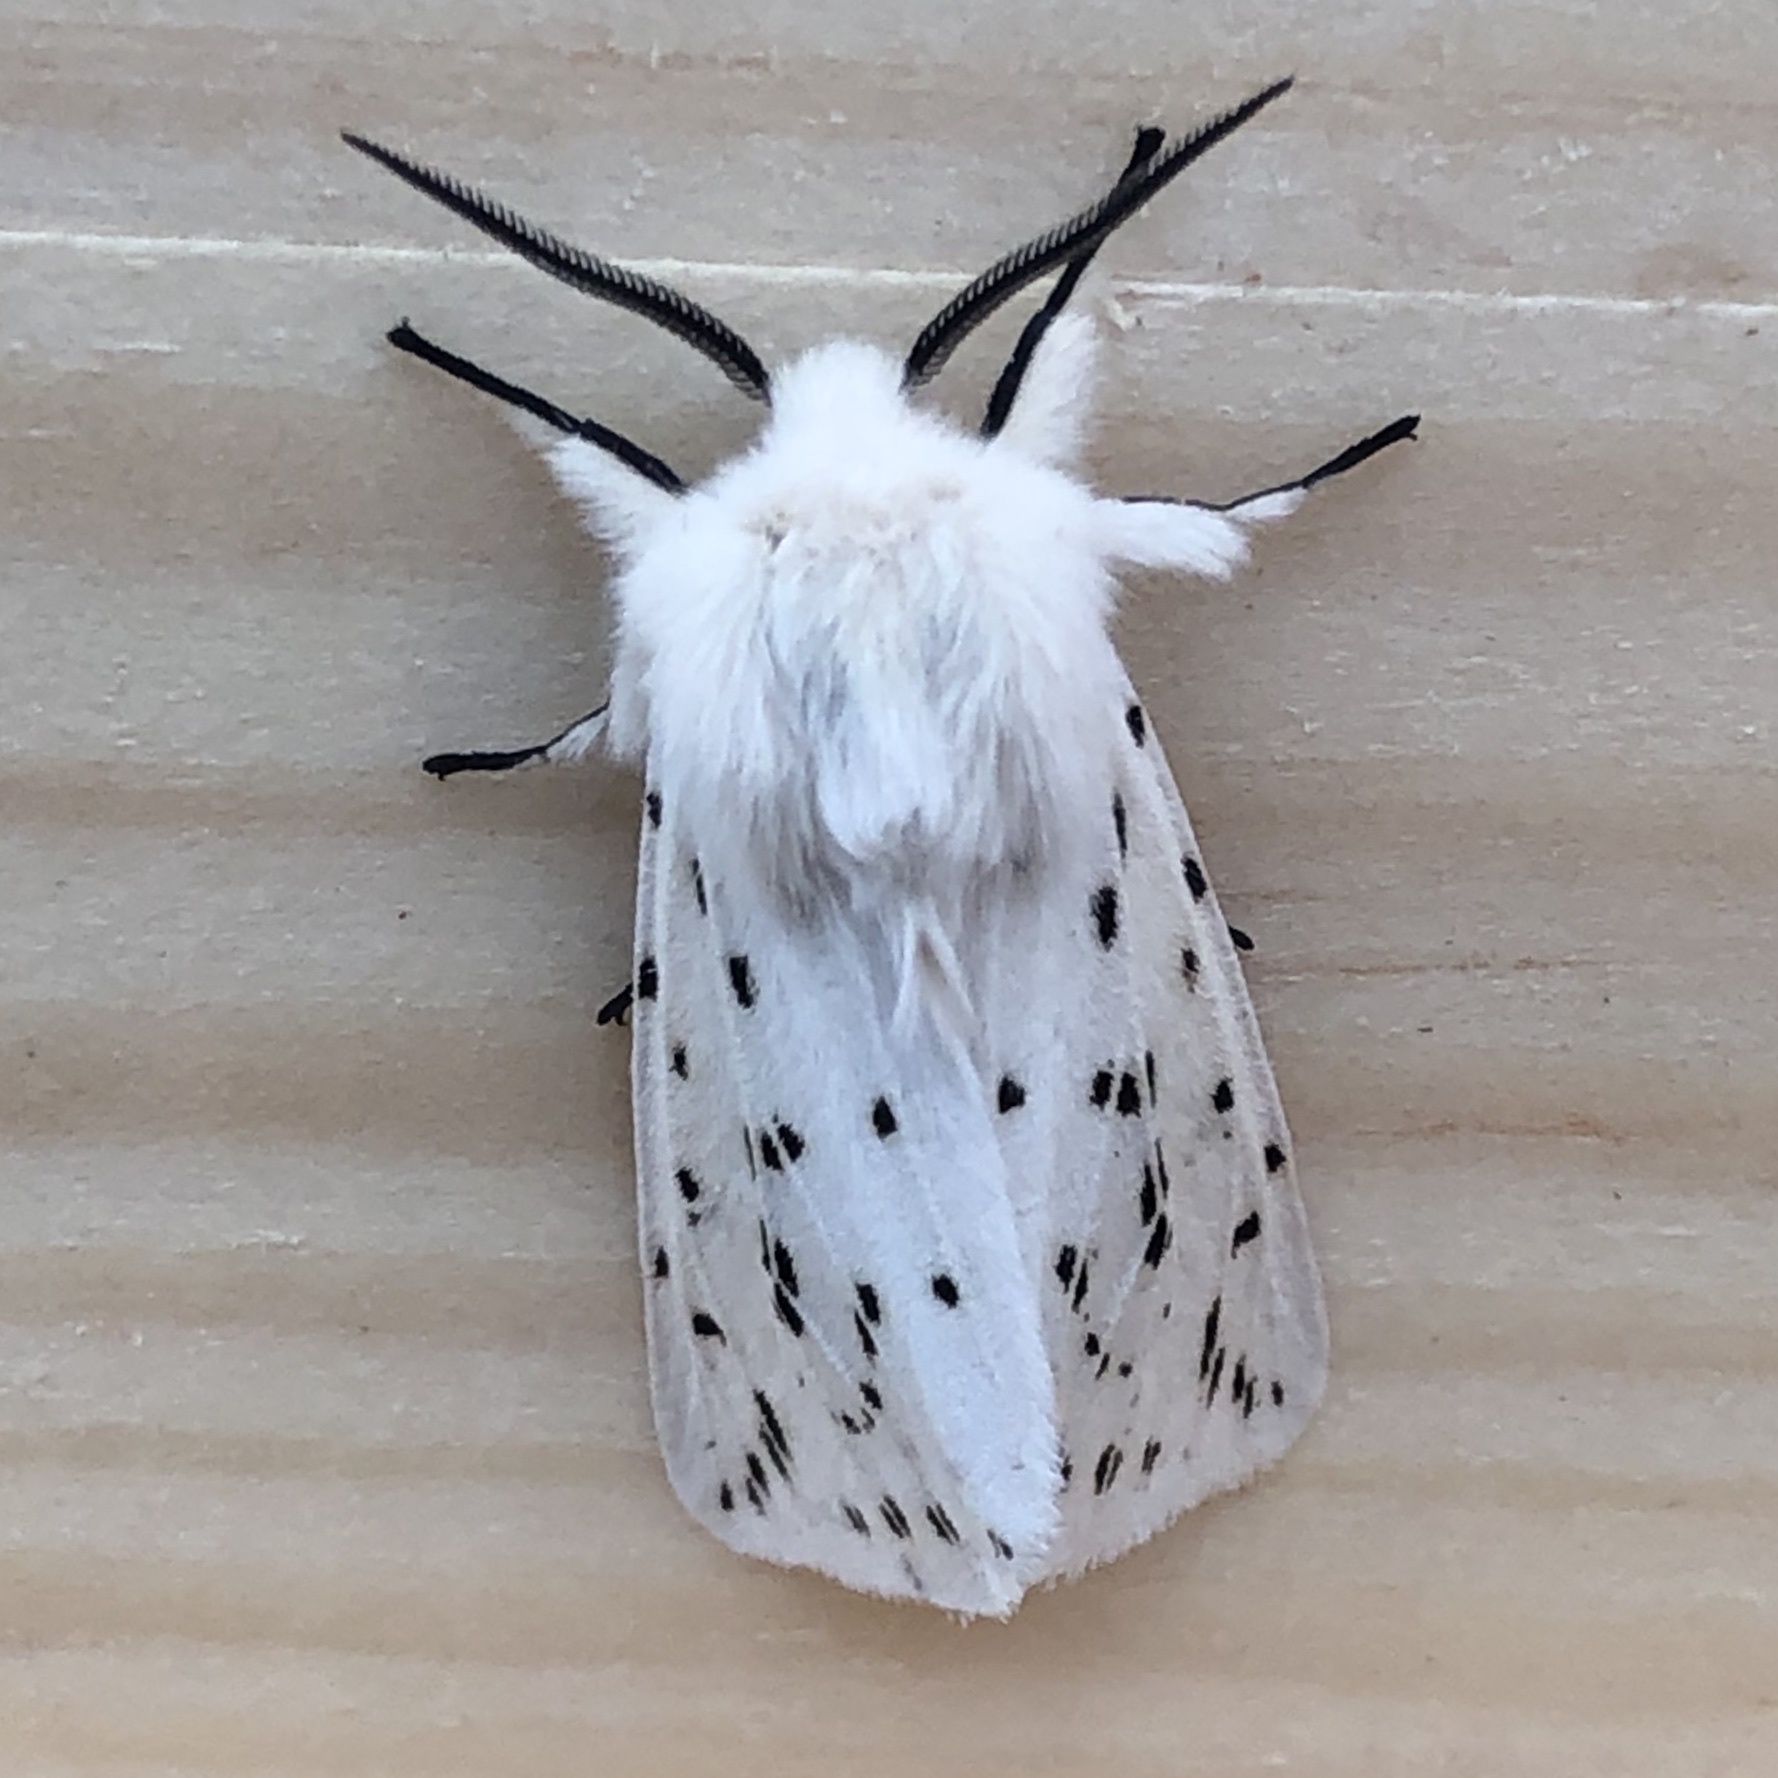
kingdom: Animalia
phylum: Arthropoda
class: Insecta
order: Lepidoptera
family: Erebidae
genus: Spilosoma
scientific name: Spilosoma lubricipeda
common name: White ermine
